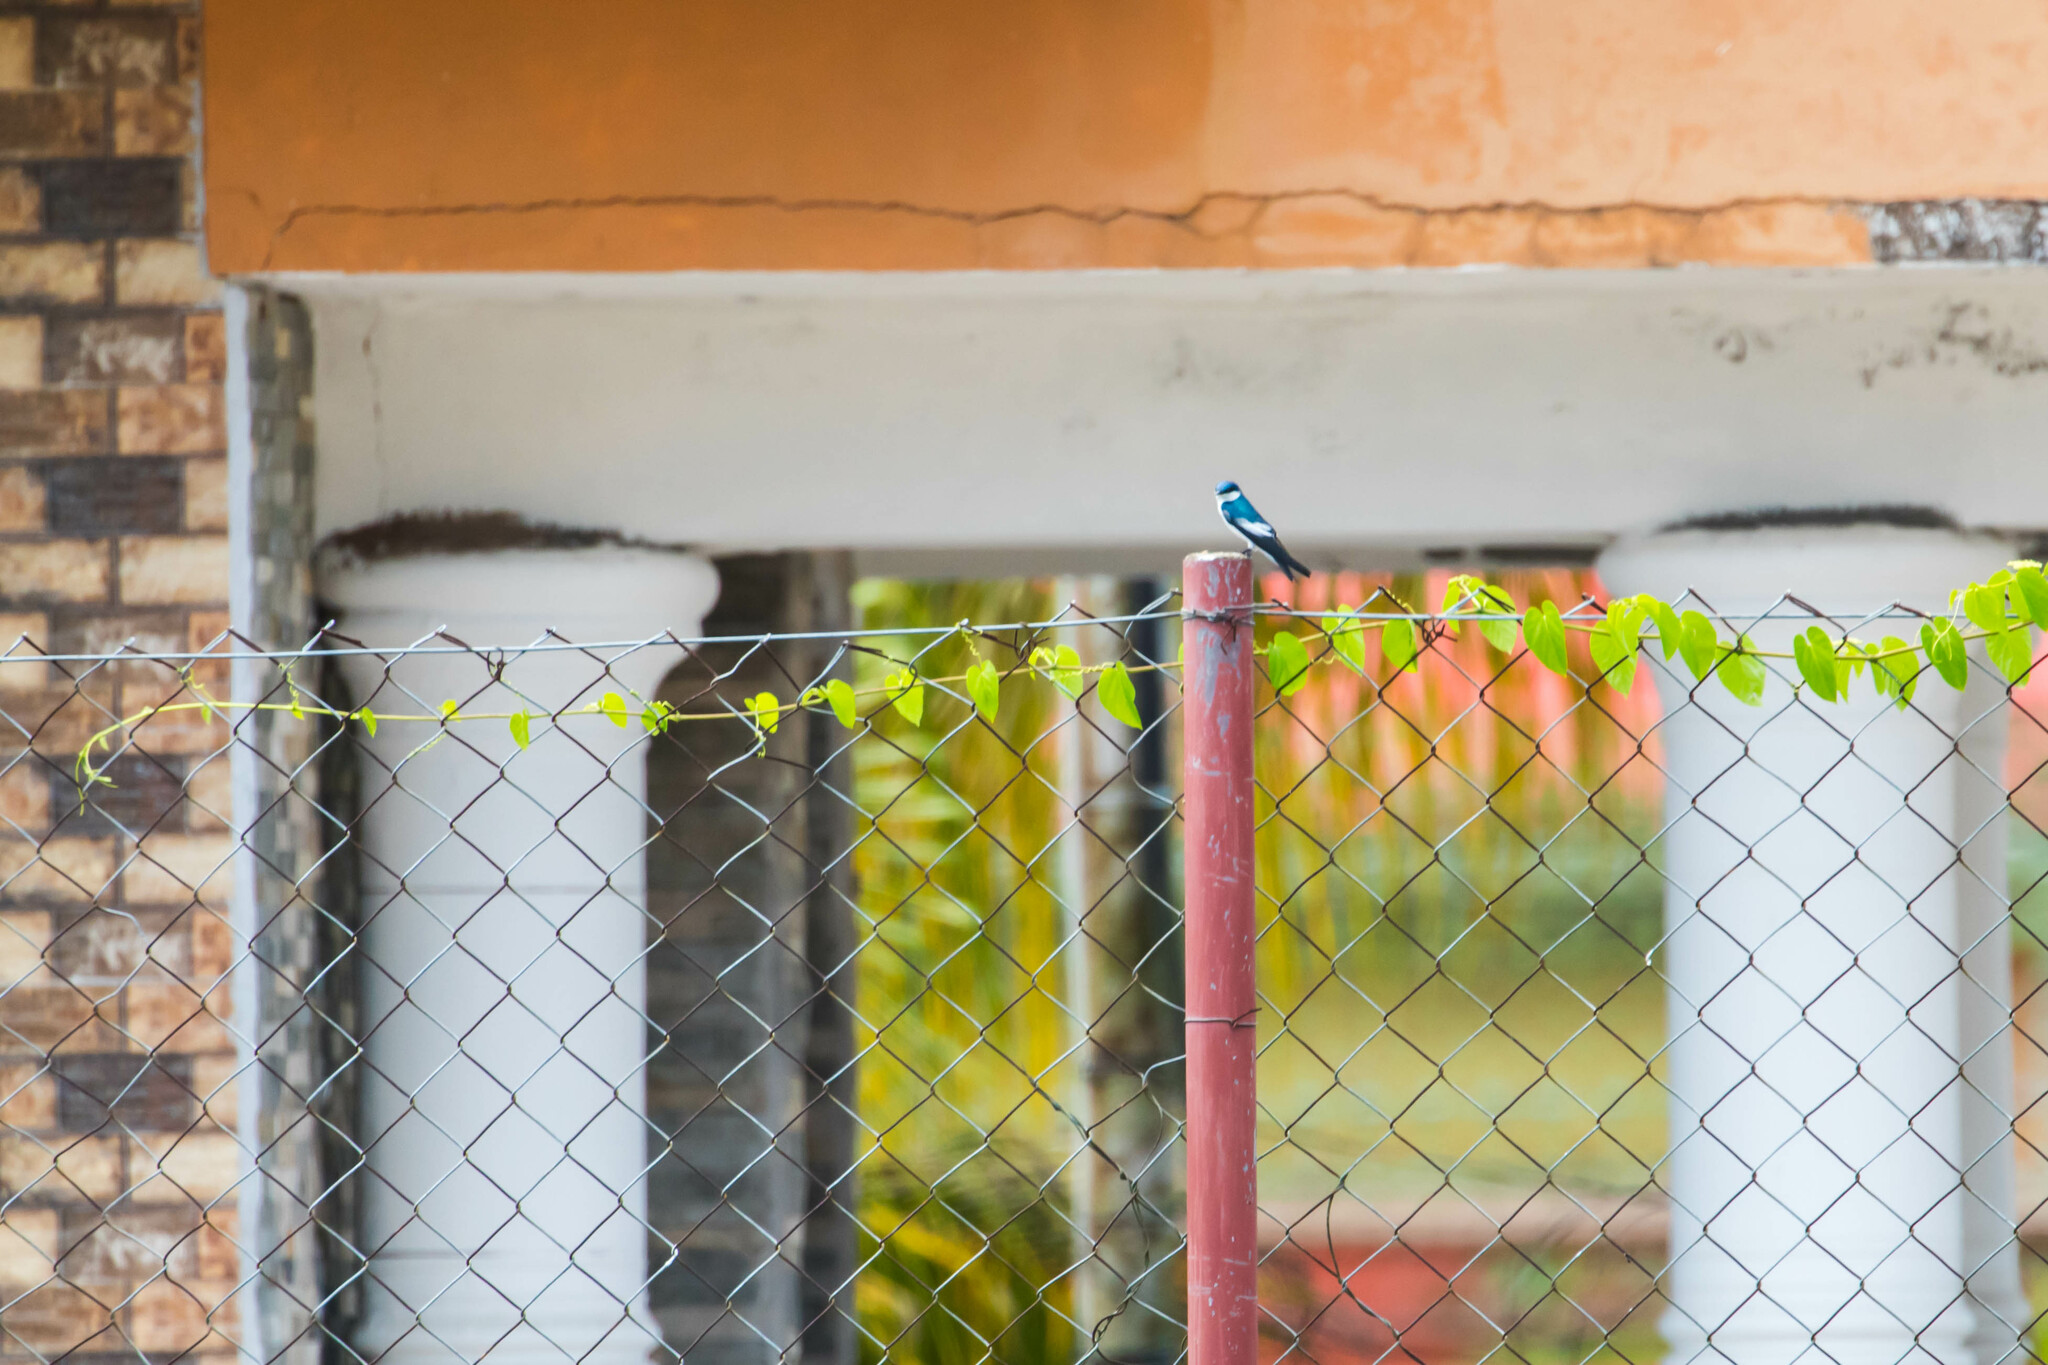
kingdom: Animalia
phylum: Chordata
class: Aves
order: Passeriformes
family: Hirundinidae
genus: Tachycineta
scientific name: Tachycineta albiventer
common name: White-winged swallow
